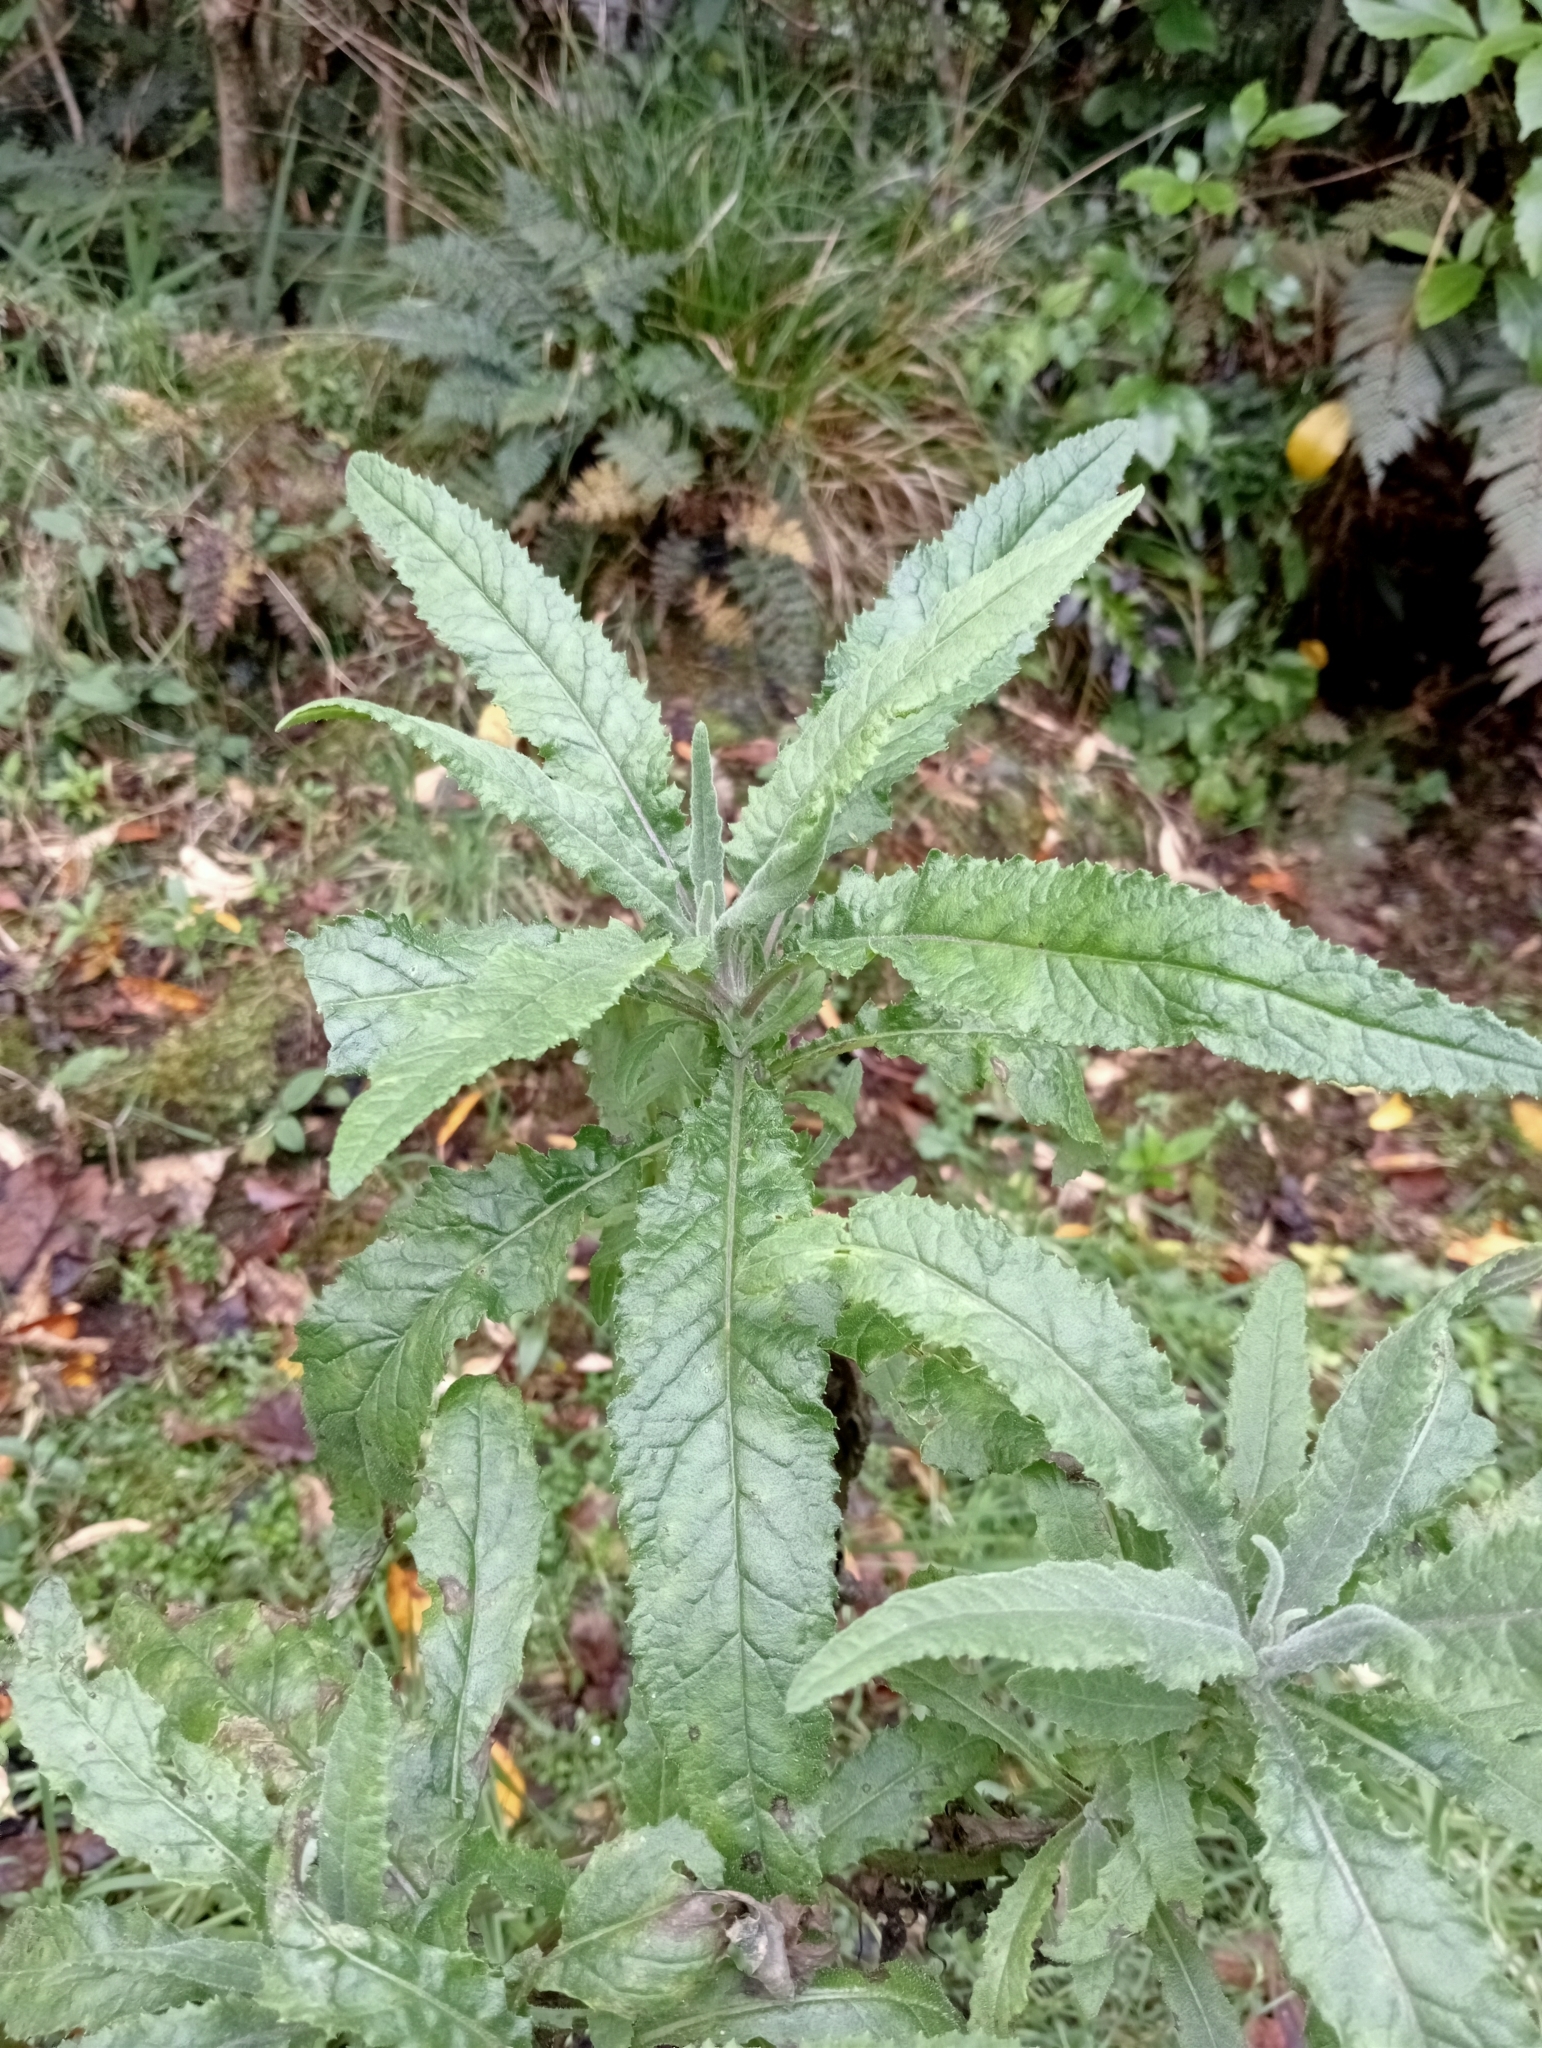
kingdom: Plantae
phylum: Tracheophyta
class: Magnoliopsida
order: Asterales
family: Asteraceae
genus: Senecio
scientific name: Senecio minimus
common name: Toothed fireweed
